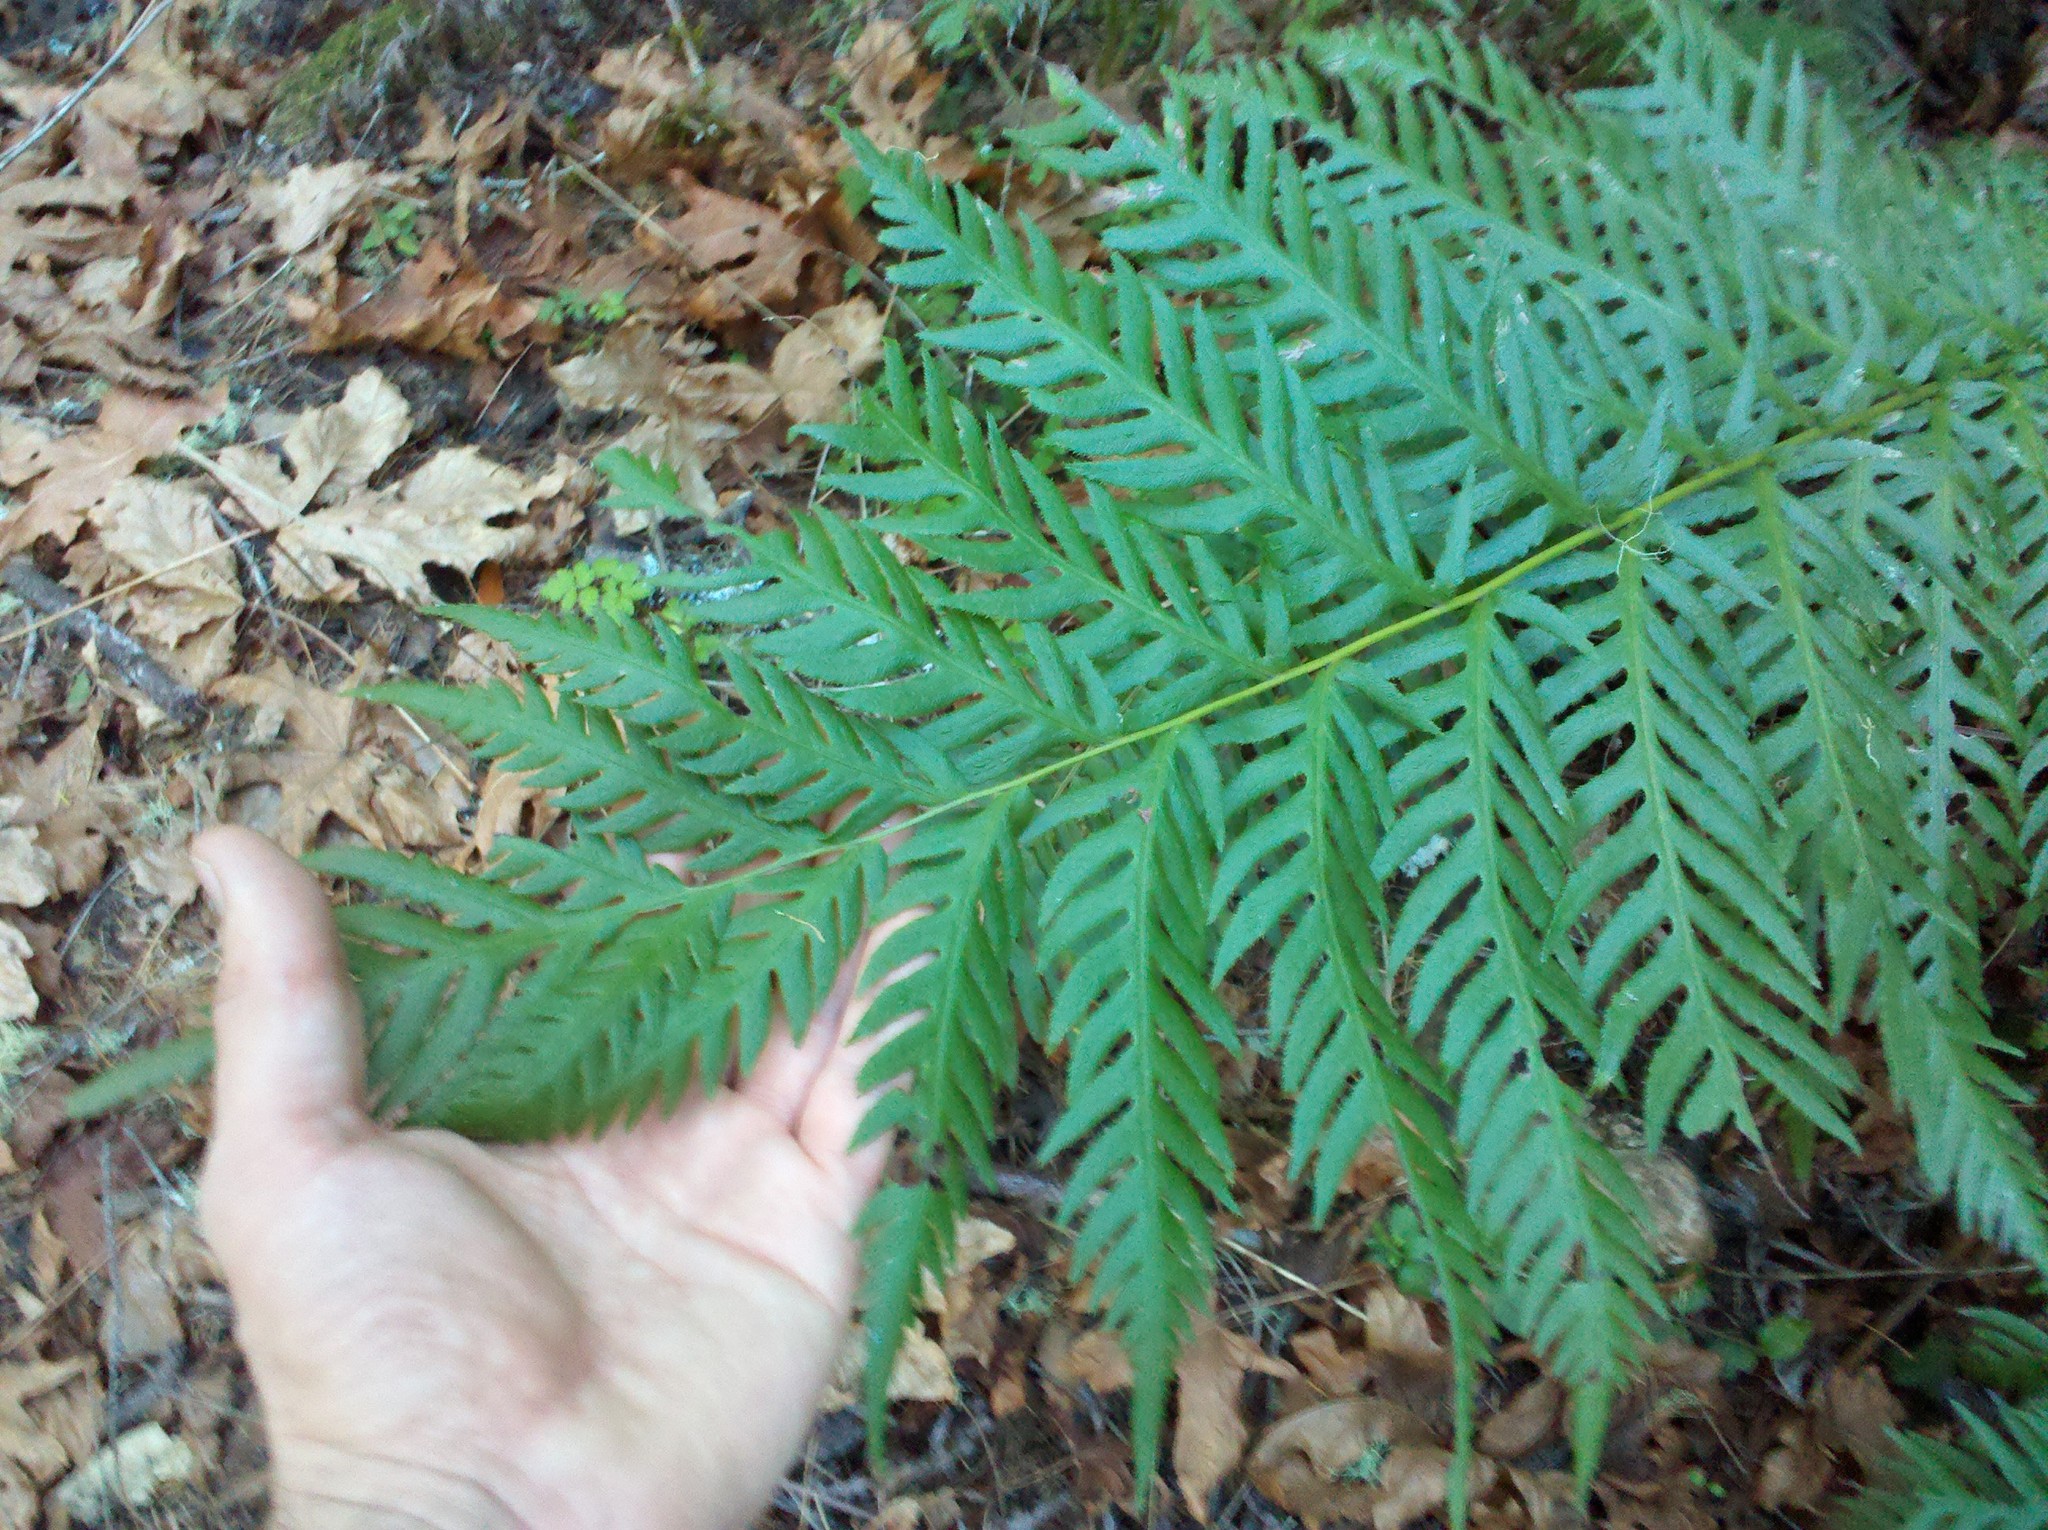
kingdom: Plantae
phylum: Tracheophyta
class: Polypodiopsida
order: Polypodiales
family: Blechnaceae
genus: Woodwardia
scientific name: Woodwardia fimbriata
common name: Giant chain fern
